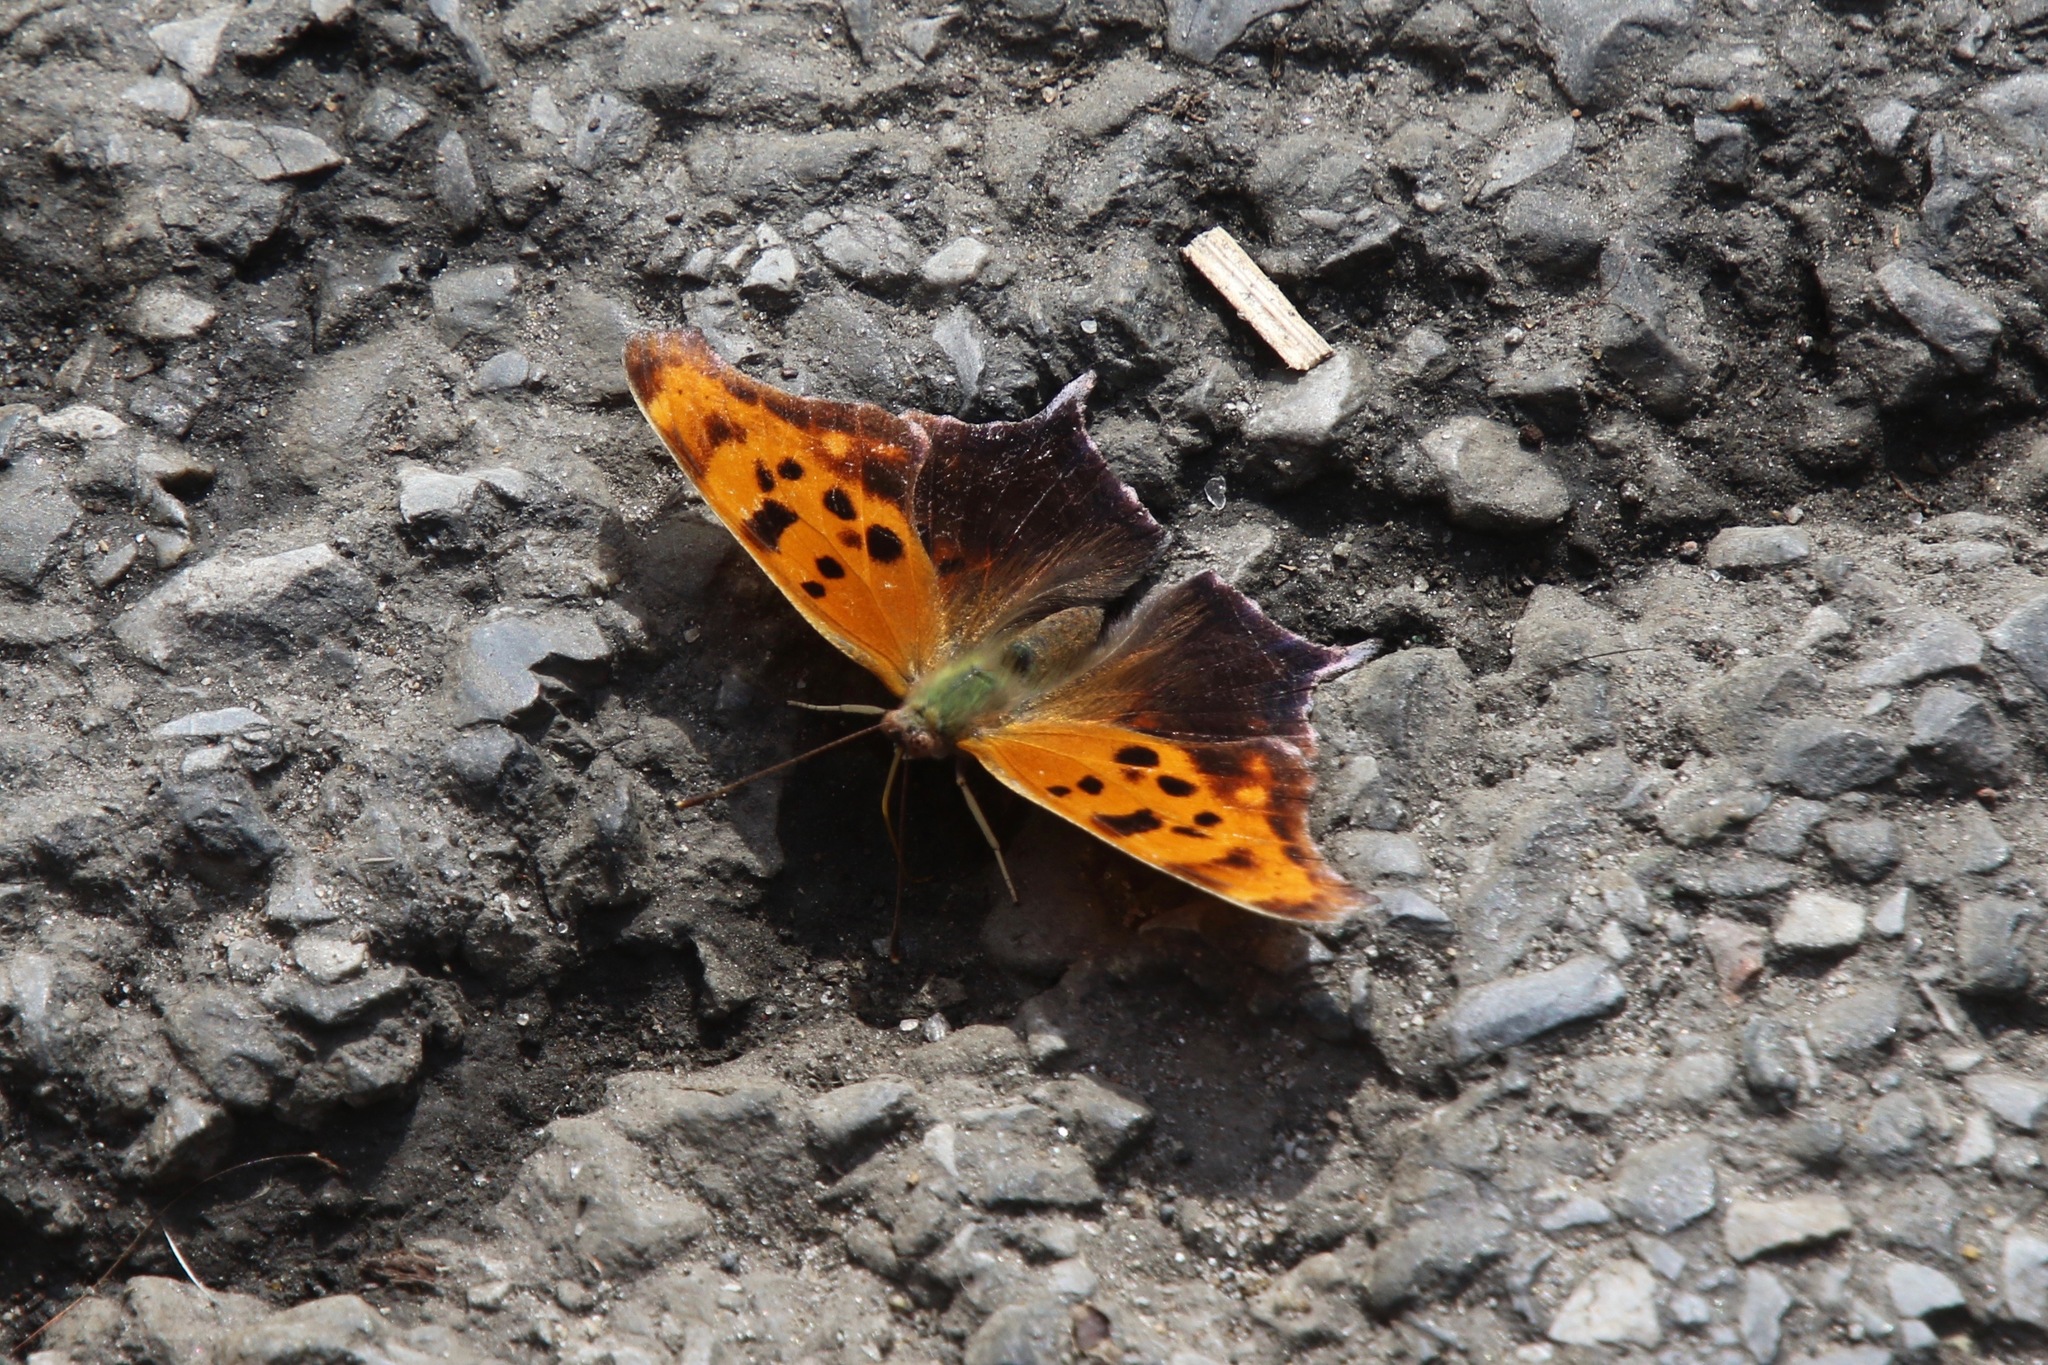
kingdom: Animalia
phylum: Arthropoda
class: Insecta
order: Lepidoptera
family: Nymphalidae
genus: Polygonia
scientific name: Polygonia interrogationis
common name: Question mark
